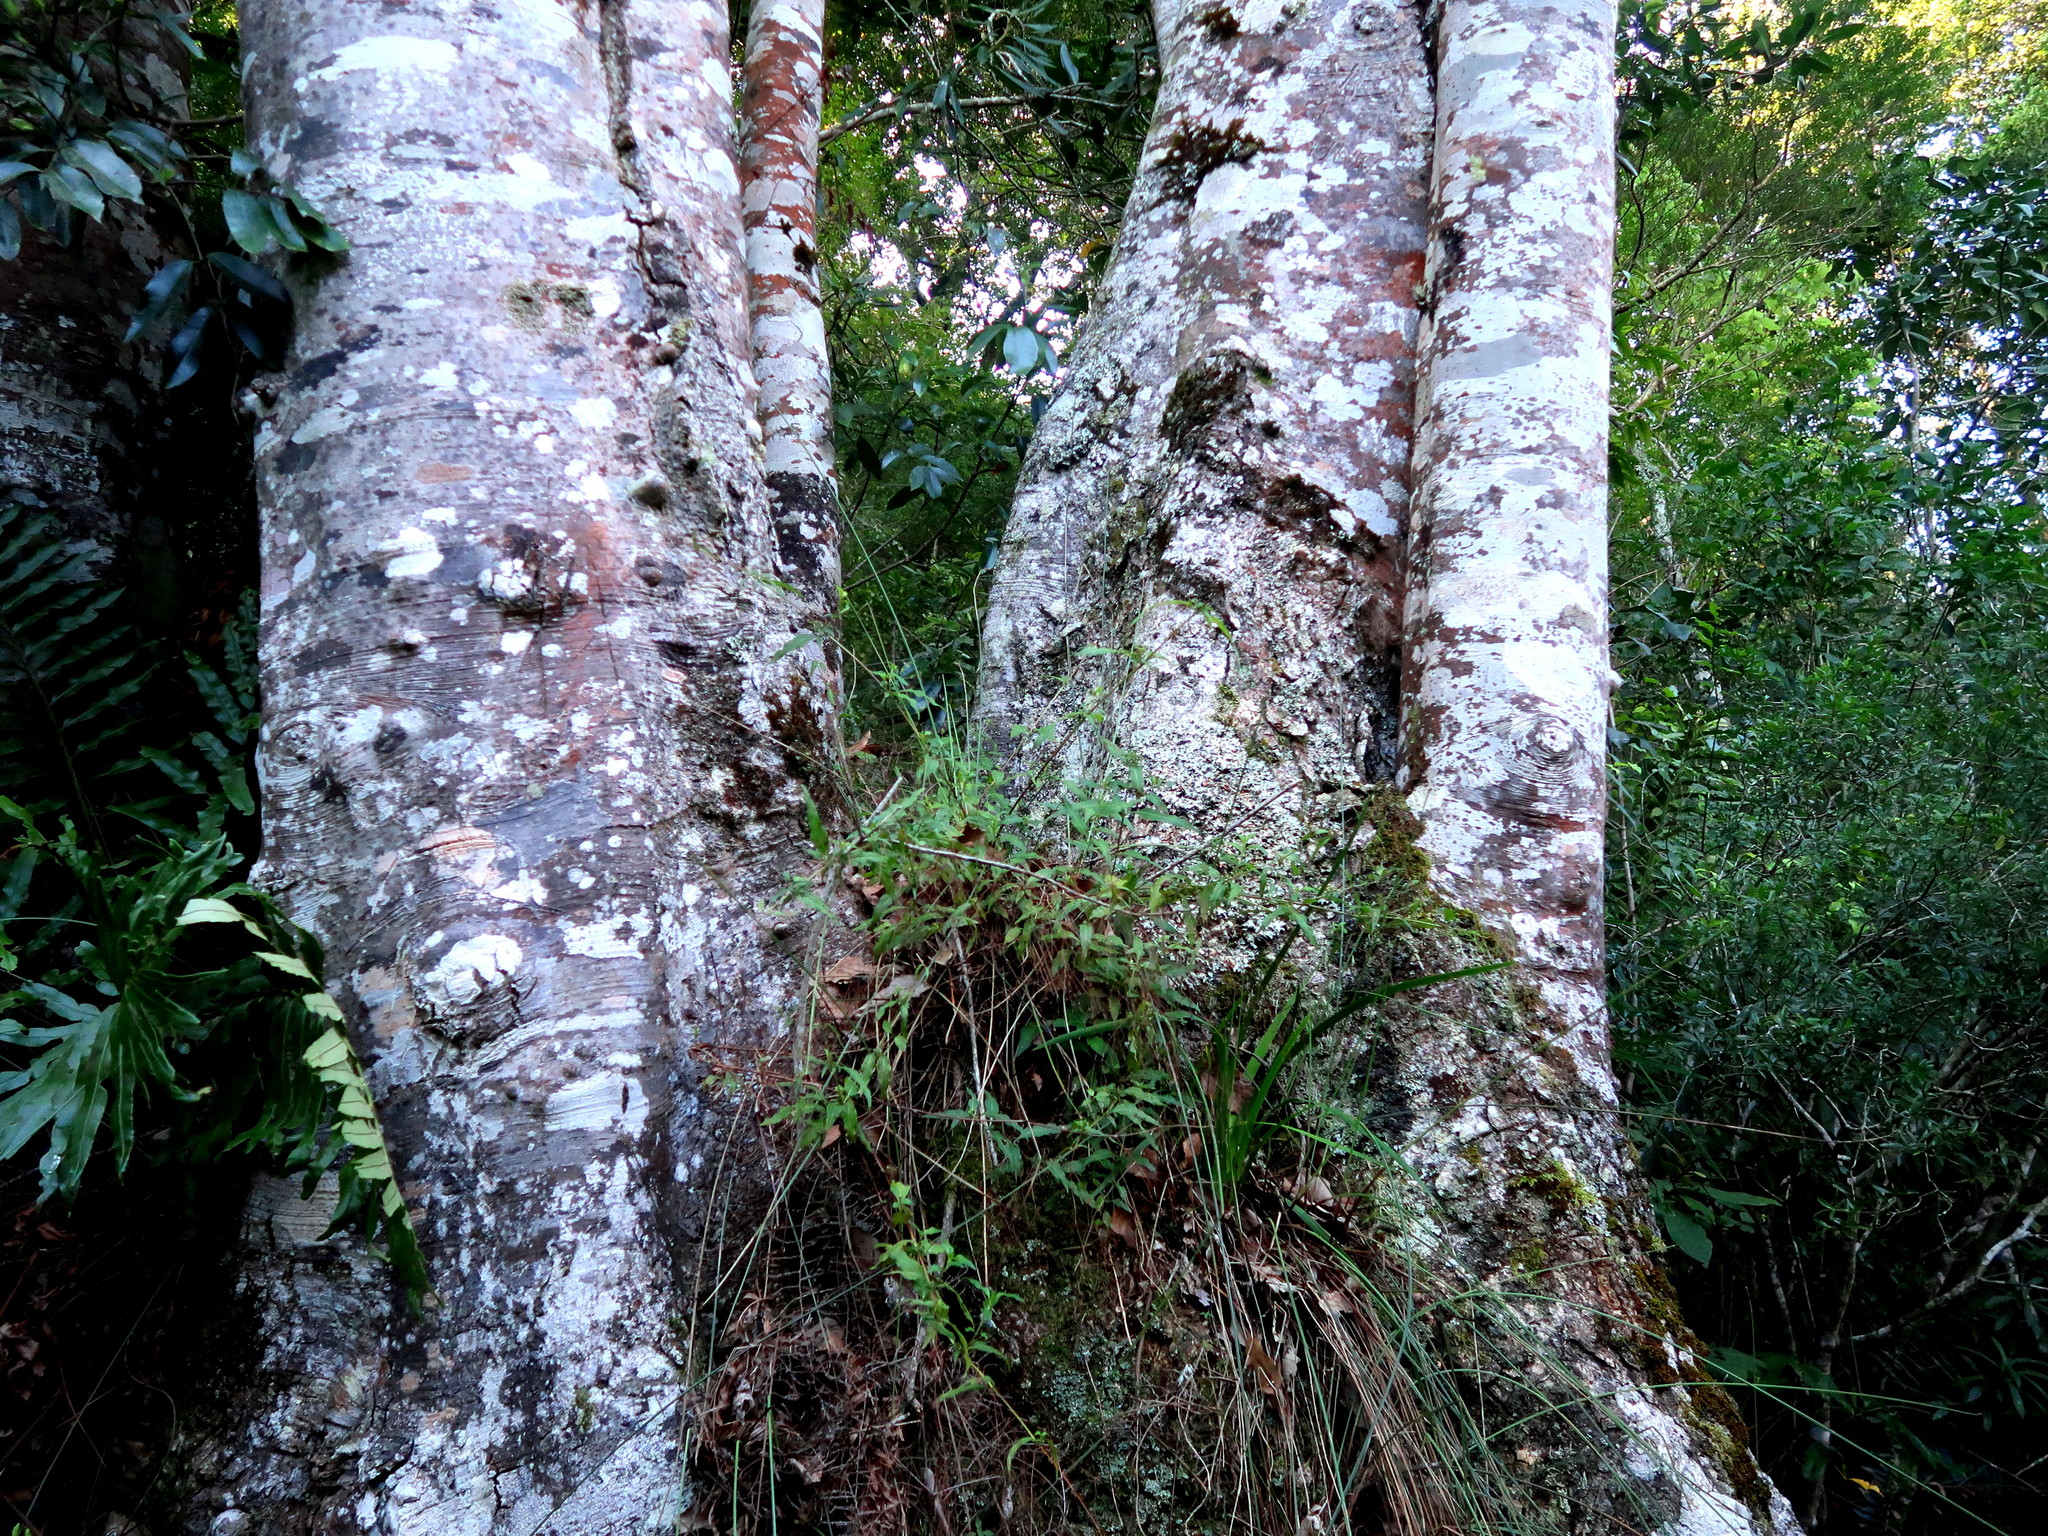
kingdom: Plantae
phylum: Tracheophyta
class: Magnoliopsida
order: Laurales
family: Lauraceae
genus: Ocotea
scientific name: Ocotea bullata
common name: Black stinkwood
